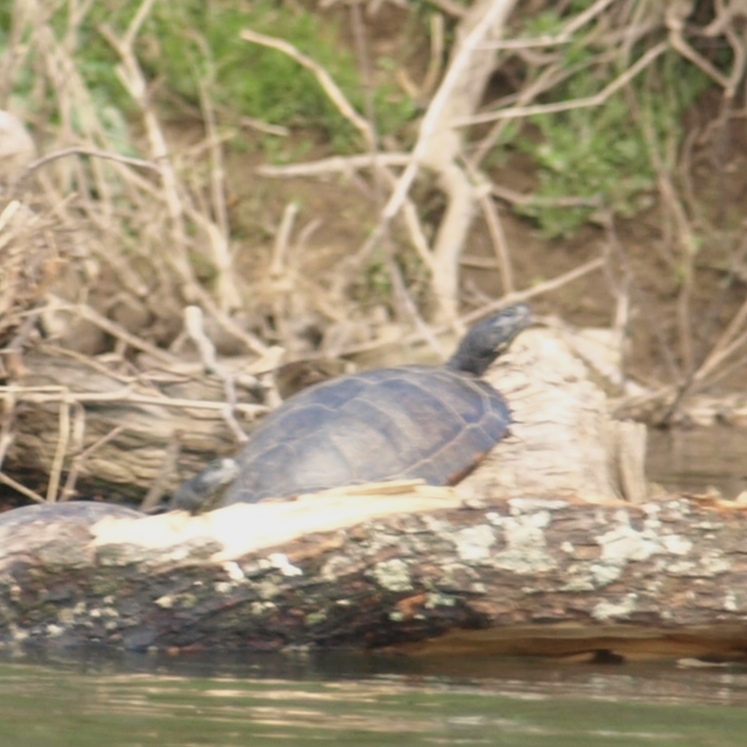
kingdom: Animalia
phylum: Chordata
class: Testudines
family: Emydidae
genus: Trachemys
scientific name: Trachemys scripta
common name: Slider
